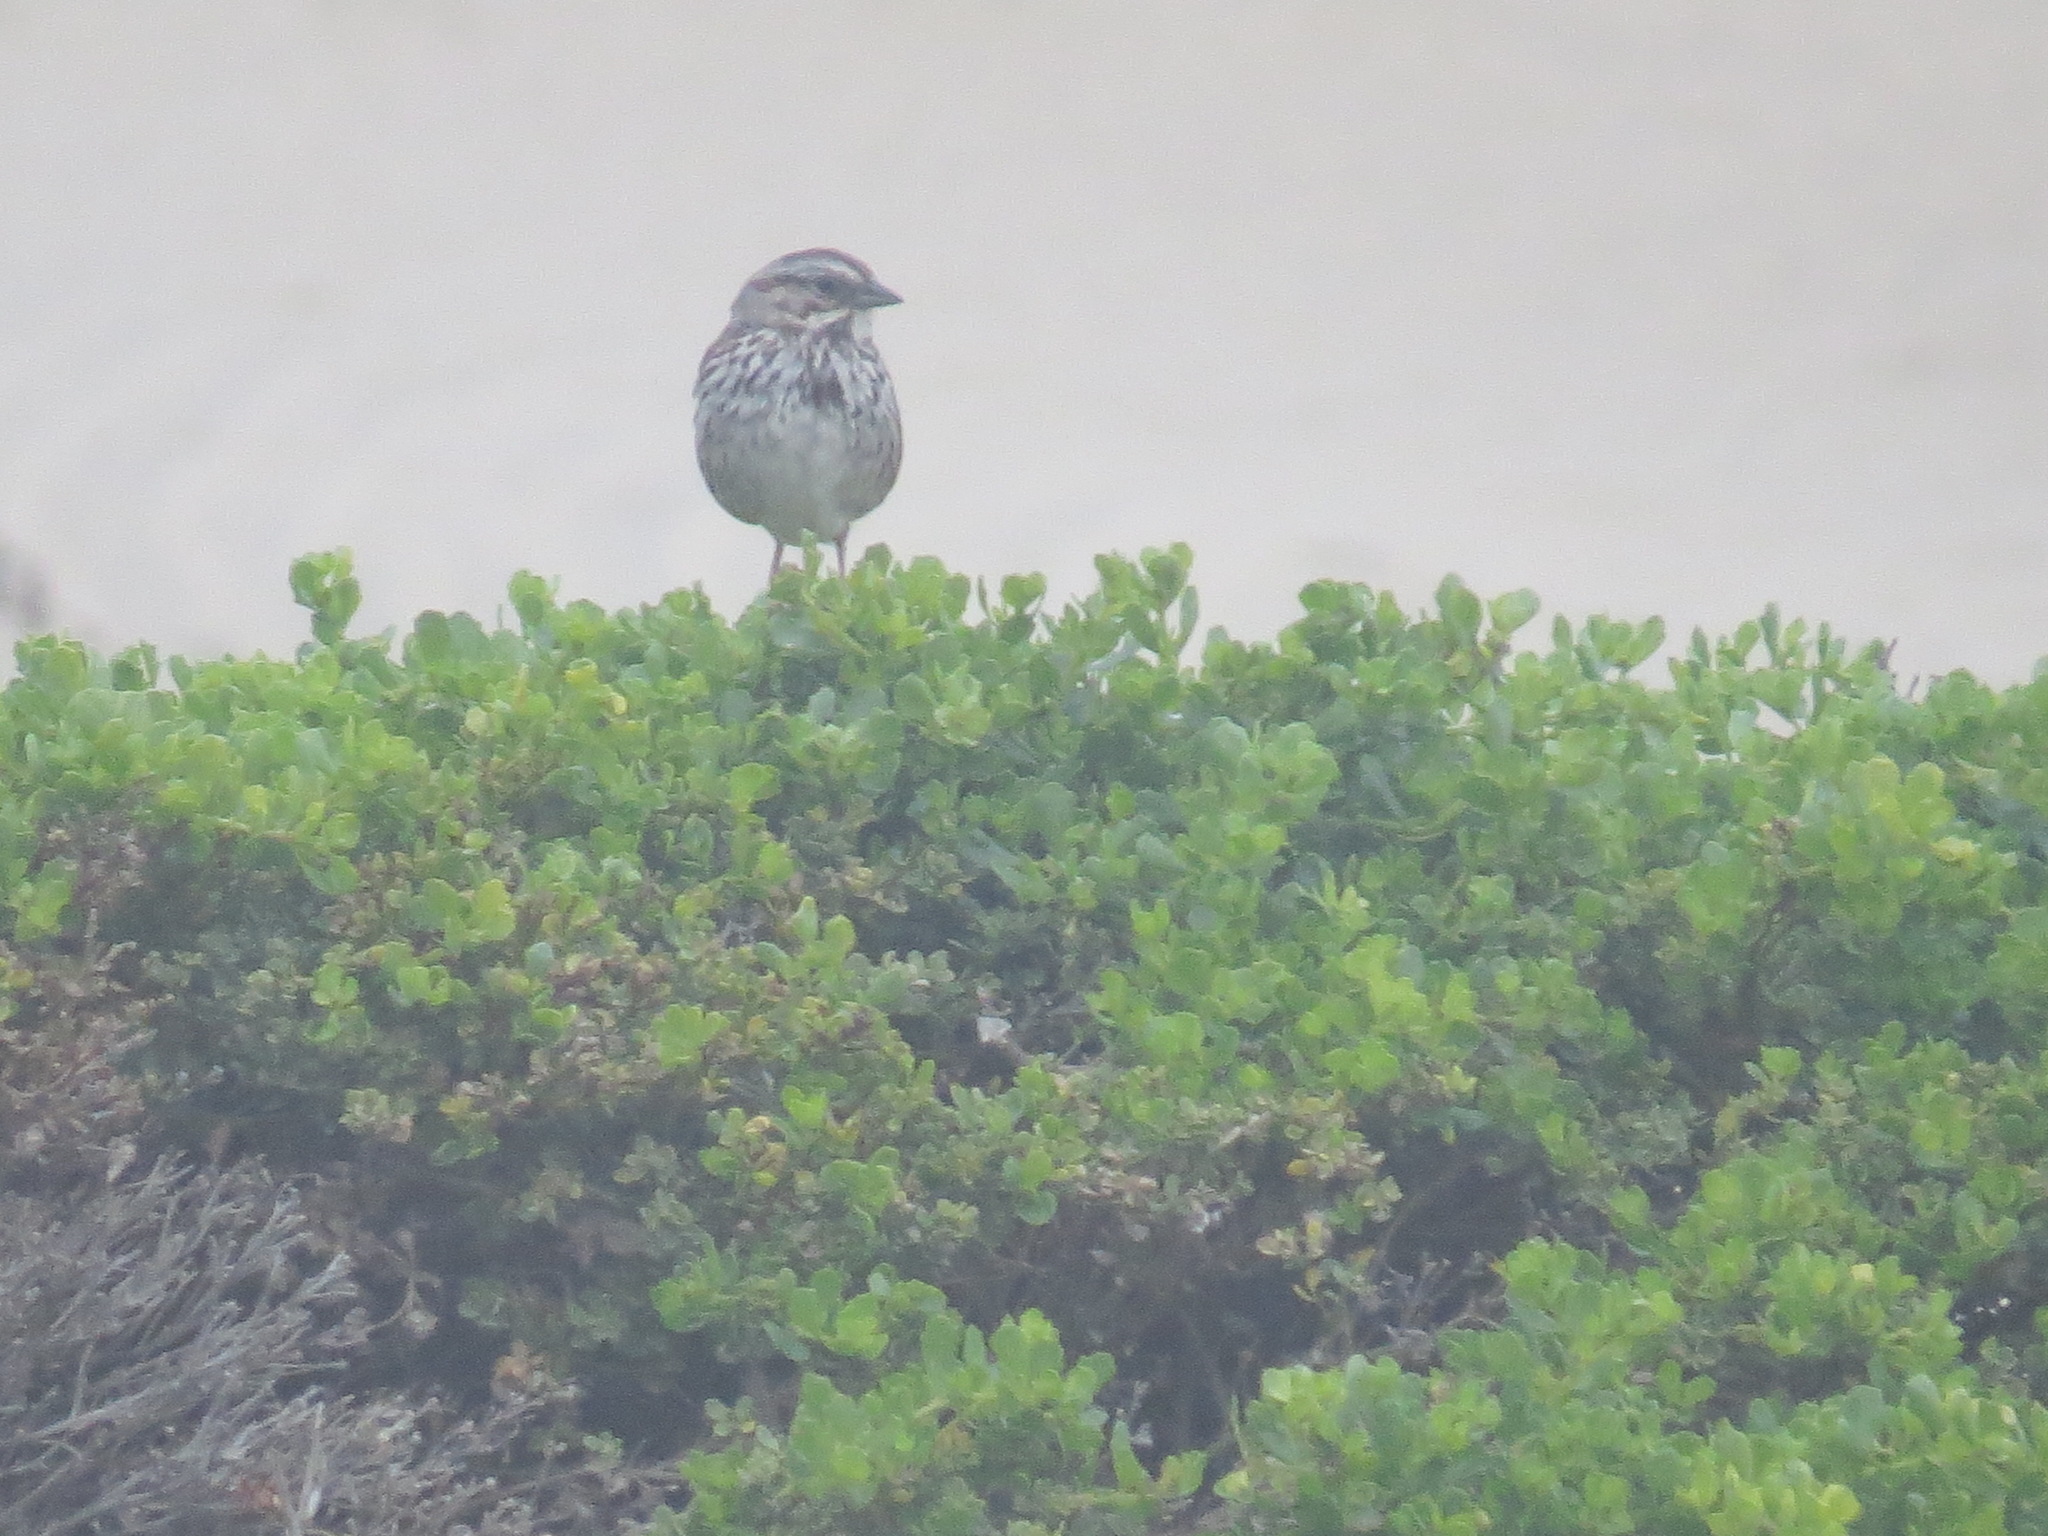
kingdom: Animalia
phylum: Chordata
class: Aves
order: Passeriformes
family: Passerellidae
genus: Melospiza
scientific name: Melospiza melodia
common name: Song sparrow
